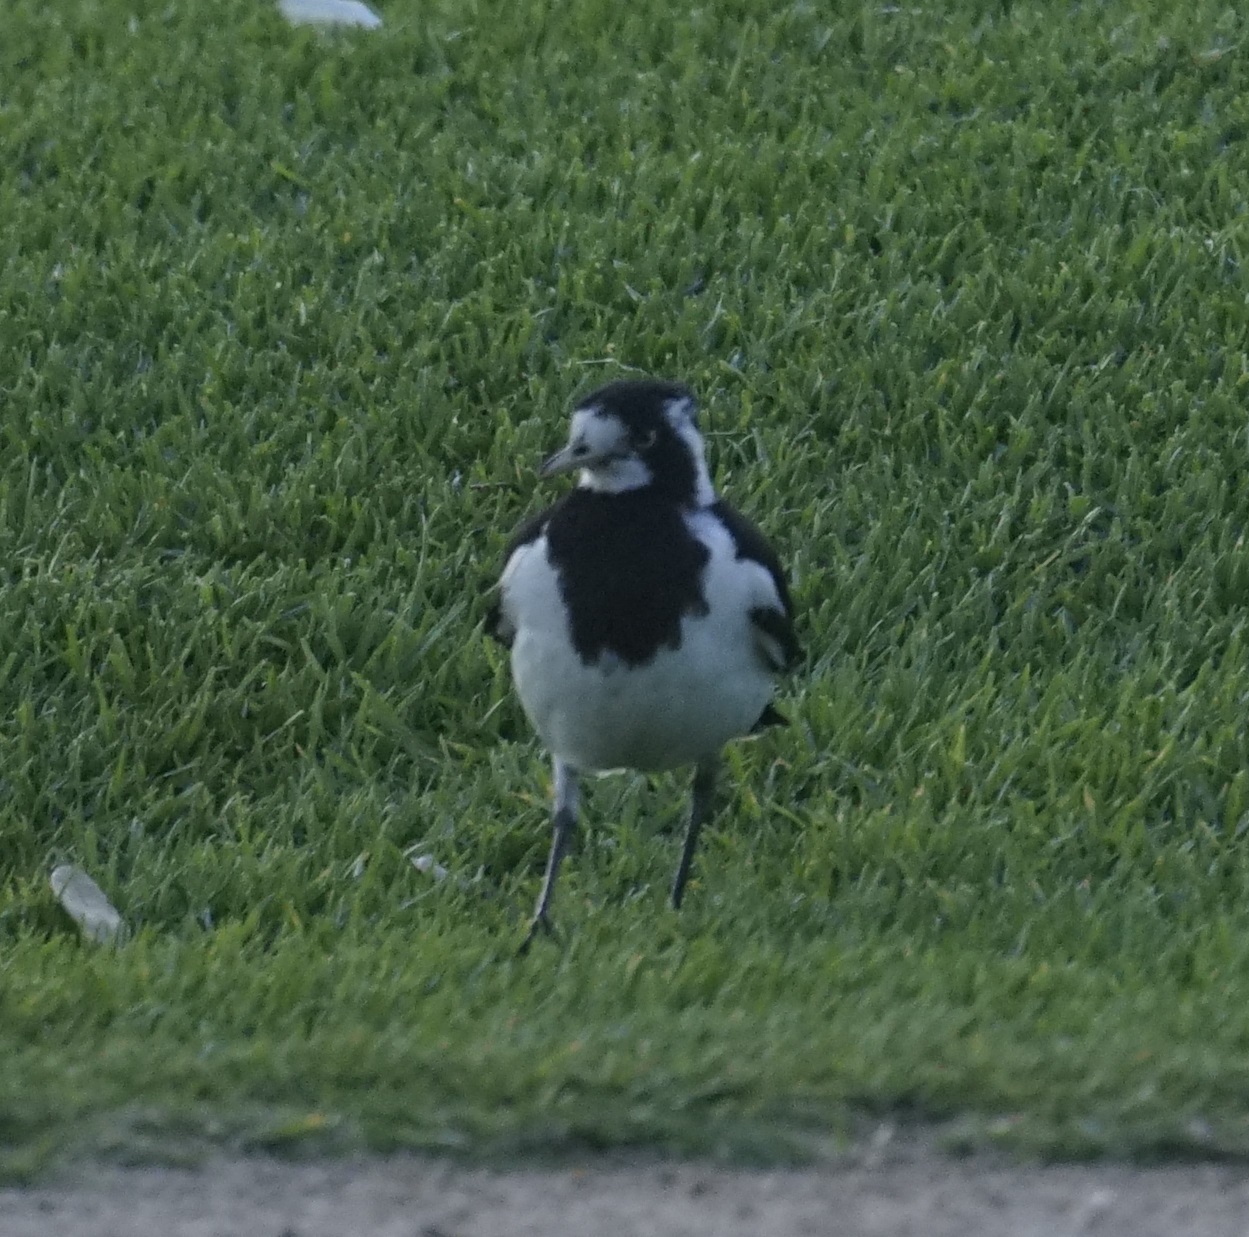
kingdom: Animalia
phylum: Chordata
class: Aves
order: Passeriformes
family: Monarchidae
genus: Grallina
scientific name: Grallina cyanoleuca
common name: Magpie-lark
